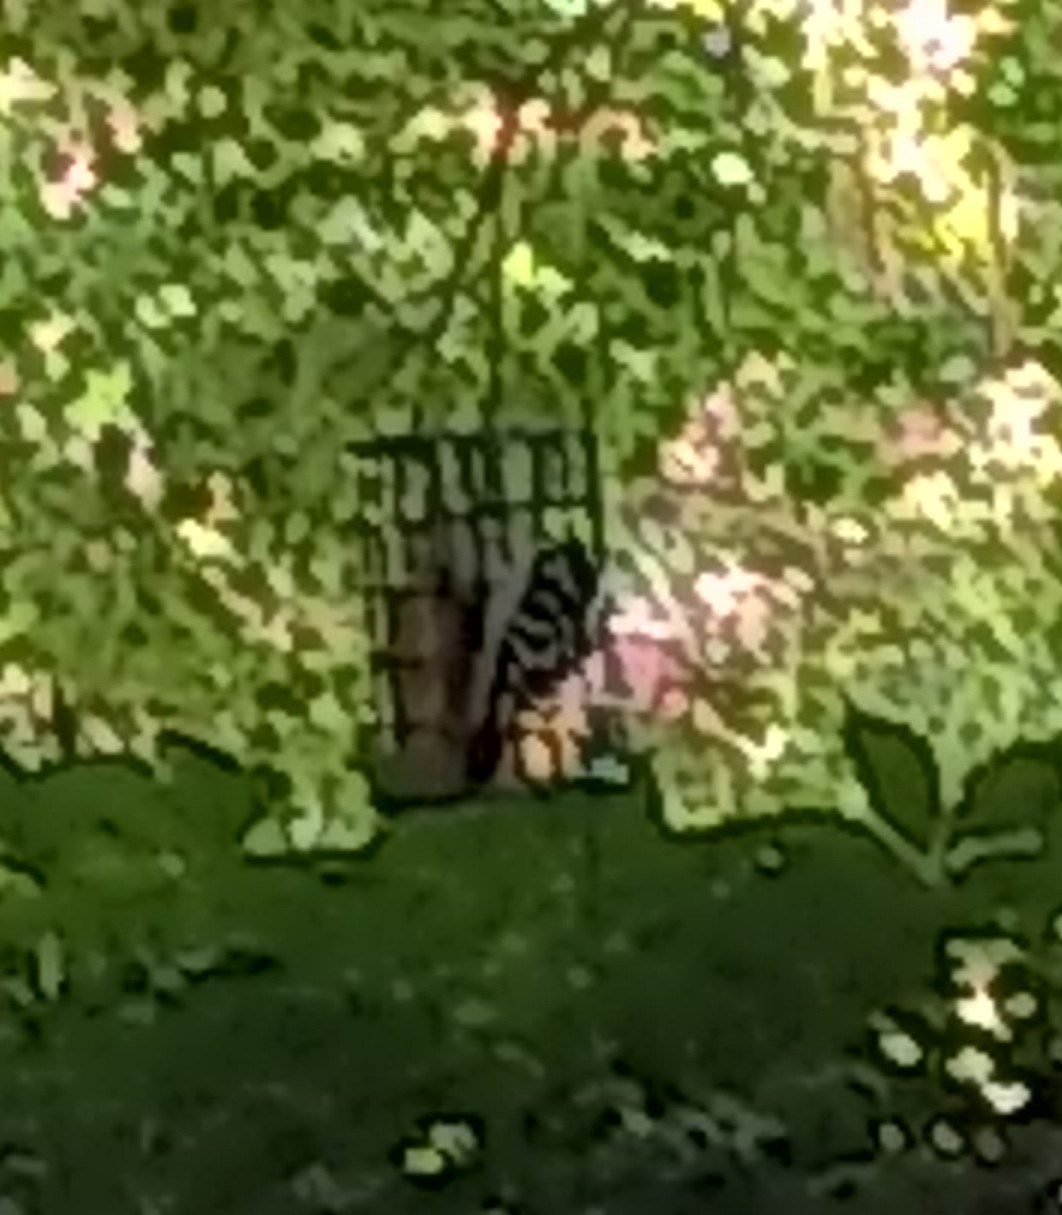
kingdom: Animalia
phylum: Chordata
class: Aves
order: Piciformes
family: Picidae
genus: Dryobates
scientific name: Dryobates pubescens
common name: Downy woodpecker
